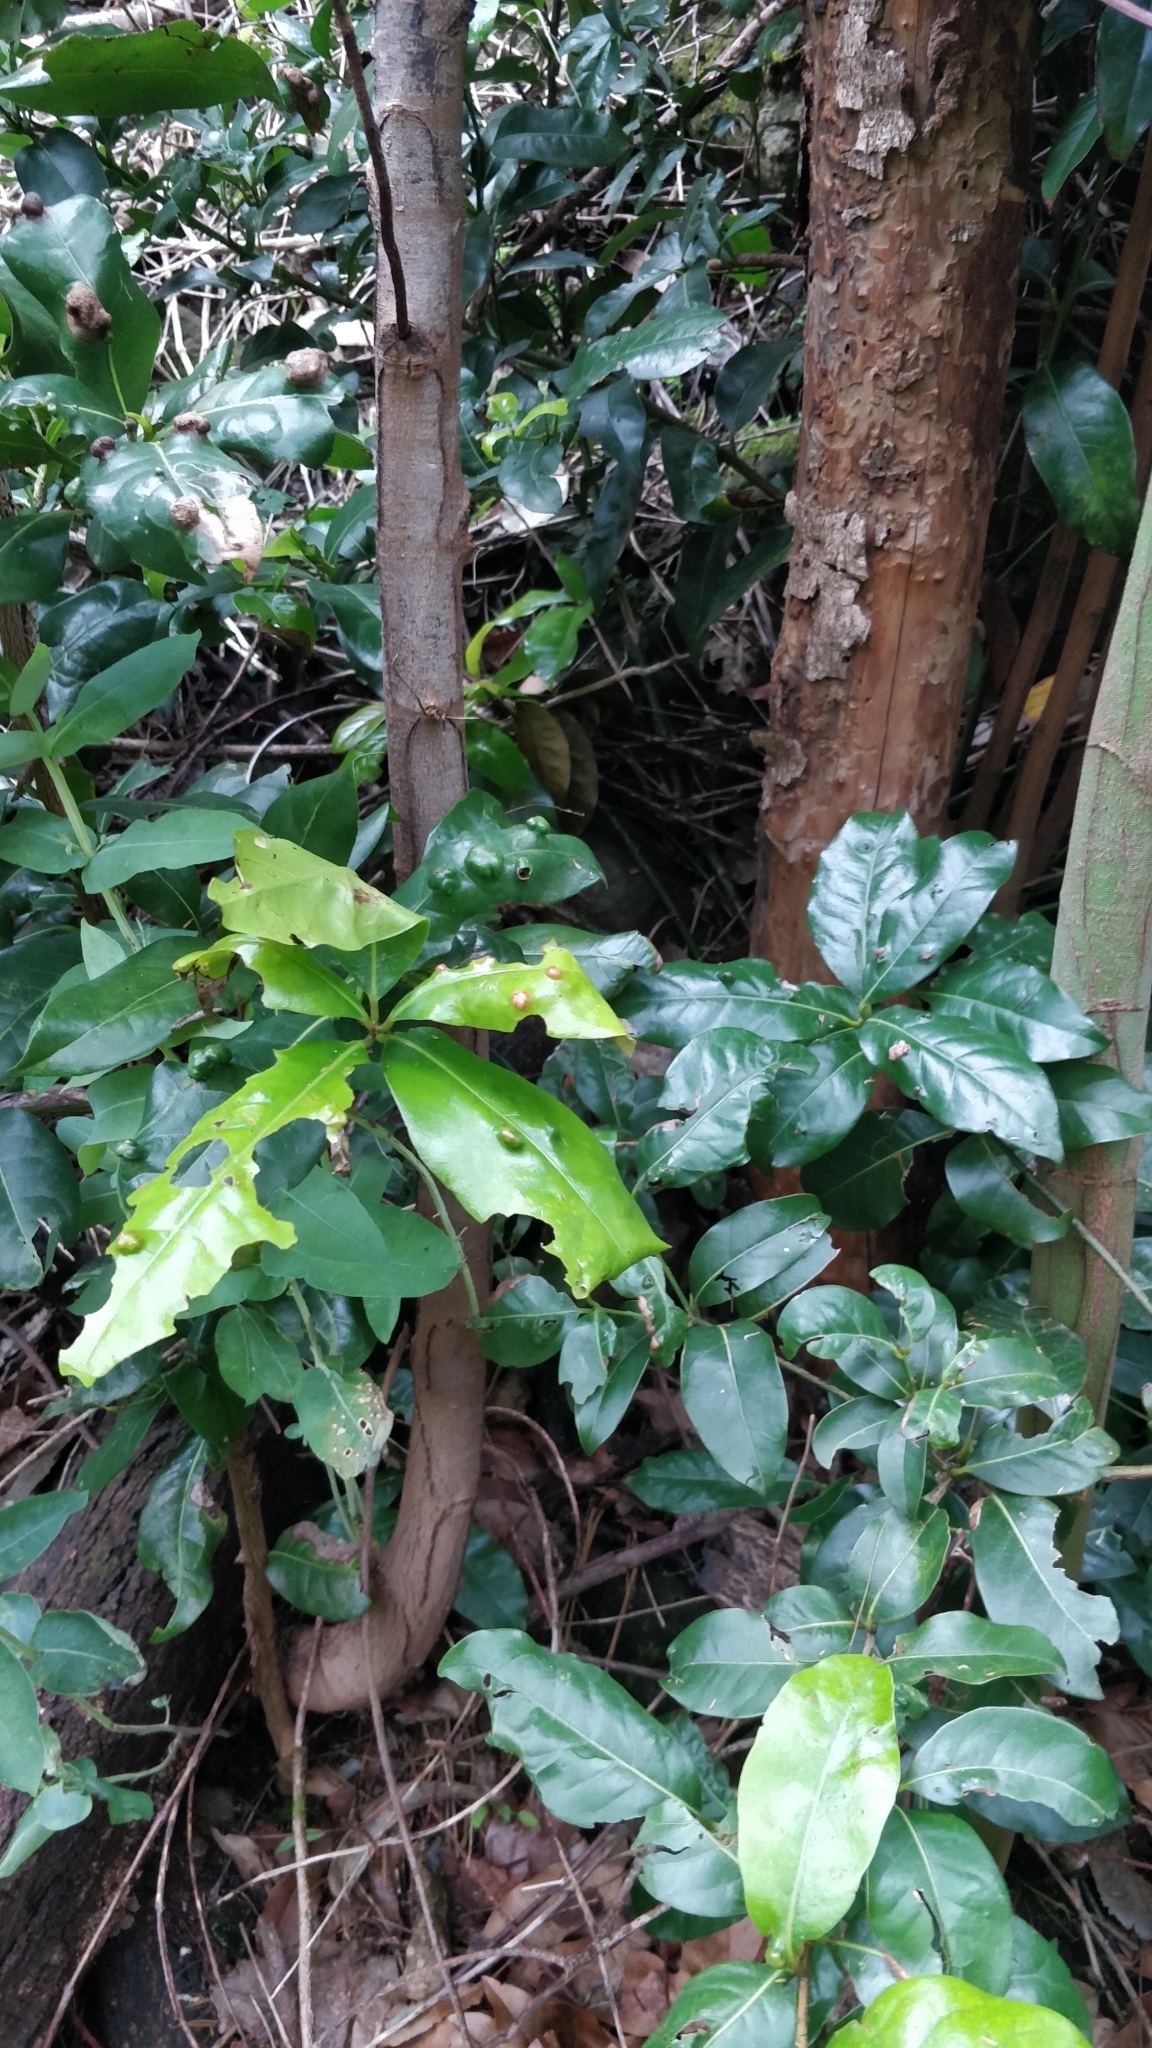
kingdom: Plantae
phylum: Tracheophyta
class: Magnoliopsida
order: Laurales
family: Lauraceae
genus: Apollonias
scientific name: Apollonias barbujana
